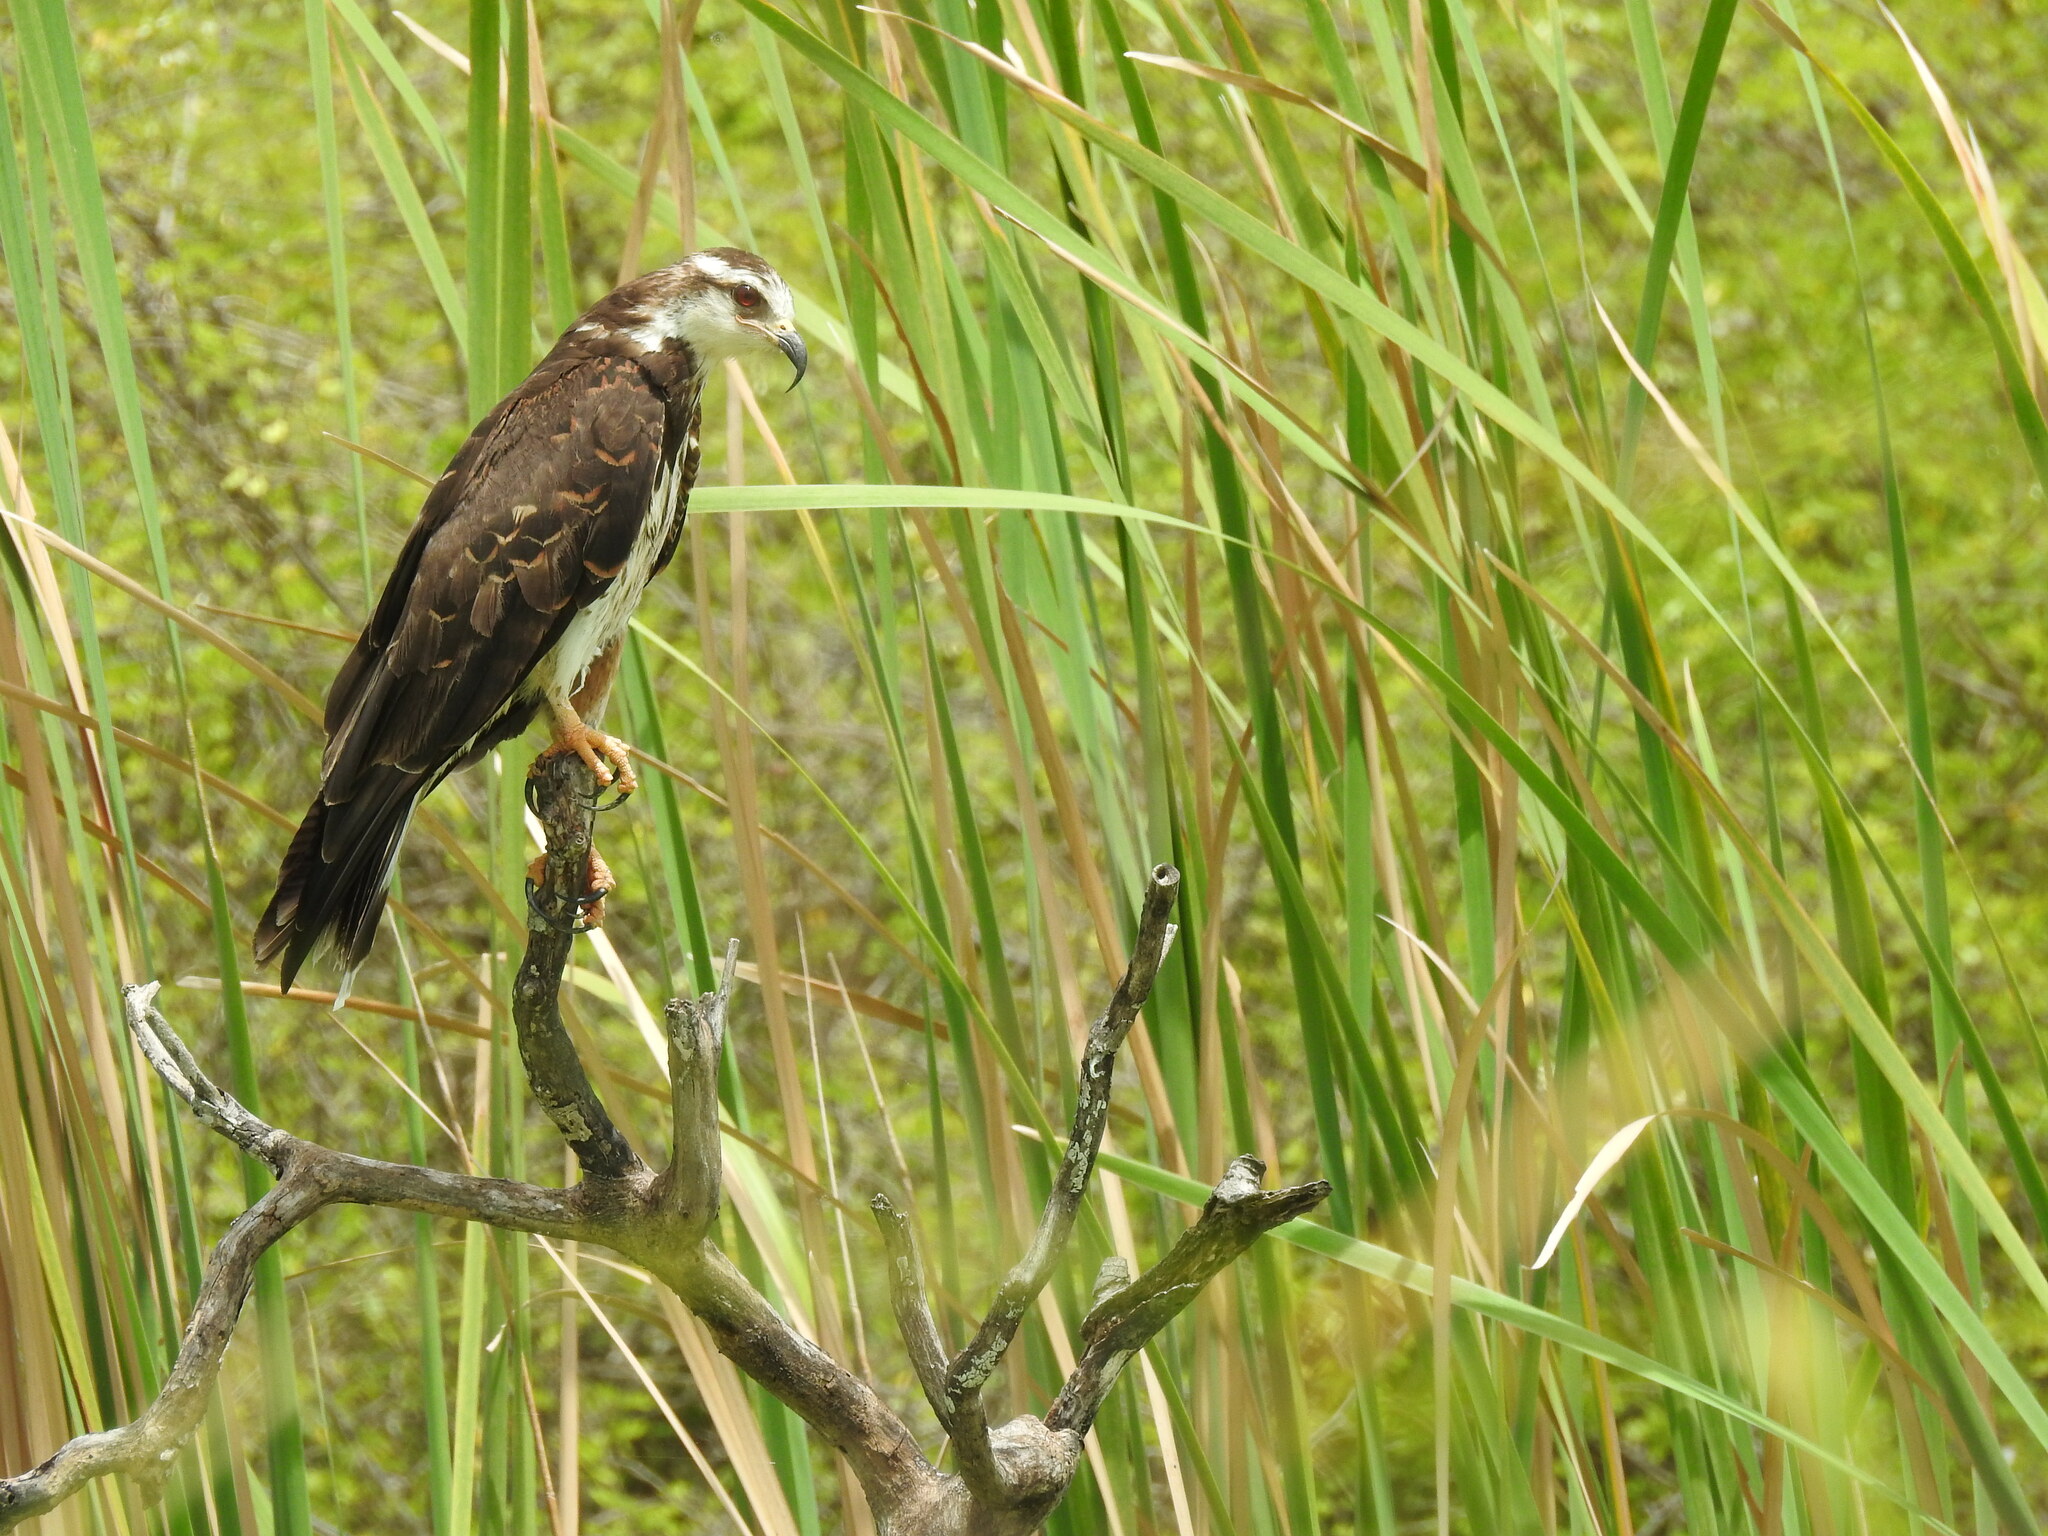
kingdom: Animalia
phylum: Chordata
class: Aves
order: Accipitriformes
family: Accipitridae
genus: Rostrhamus
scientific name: Rostrhamus sociabilis
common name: Snail kite
